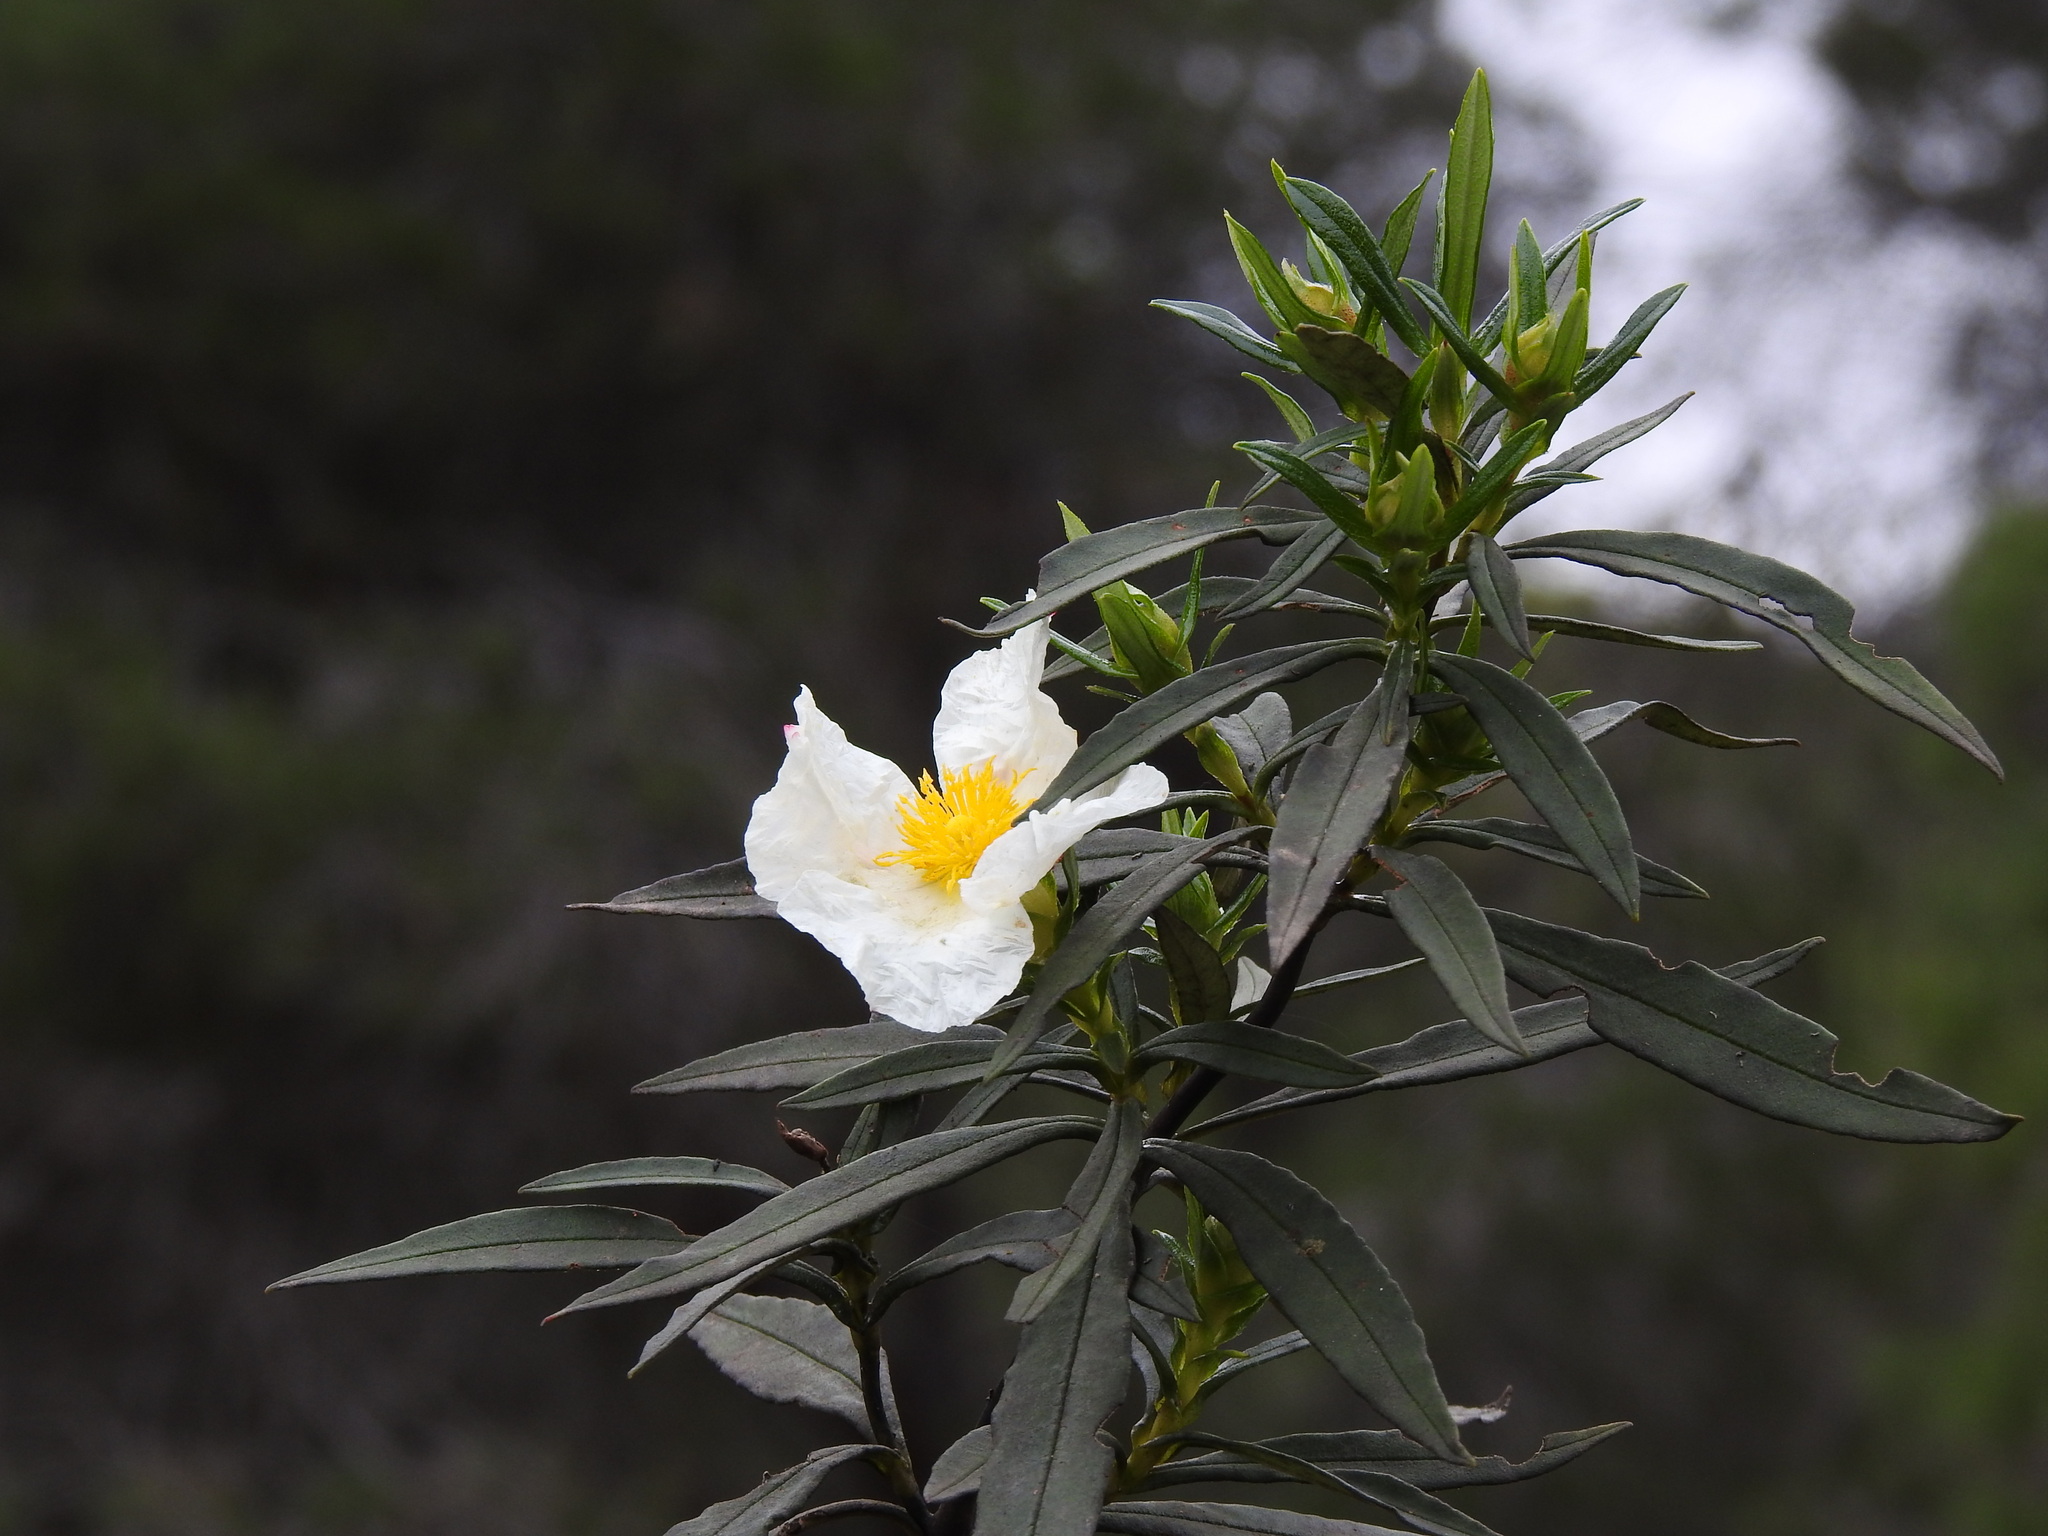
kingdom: Plantae
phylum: Tracheophyta
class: Magnoliopsida
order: Malvales
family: Cistaceae
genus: Cistus
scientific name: Cistus ladanifer
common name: Common gum cistus
